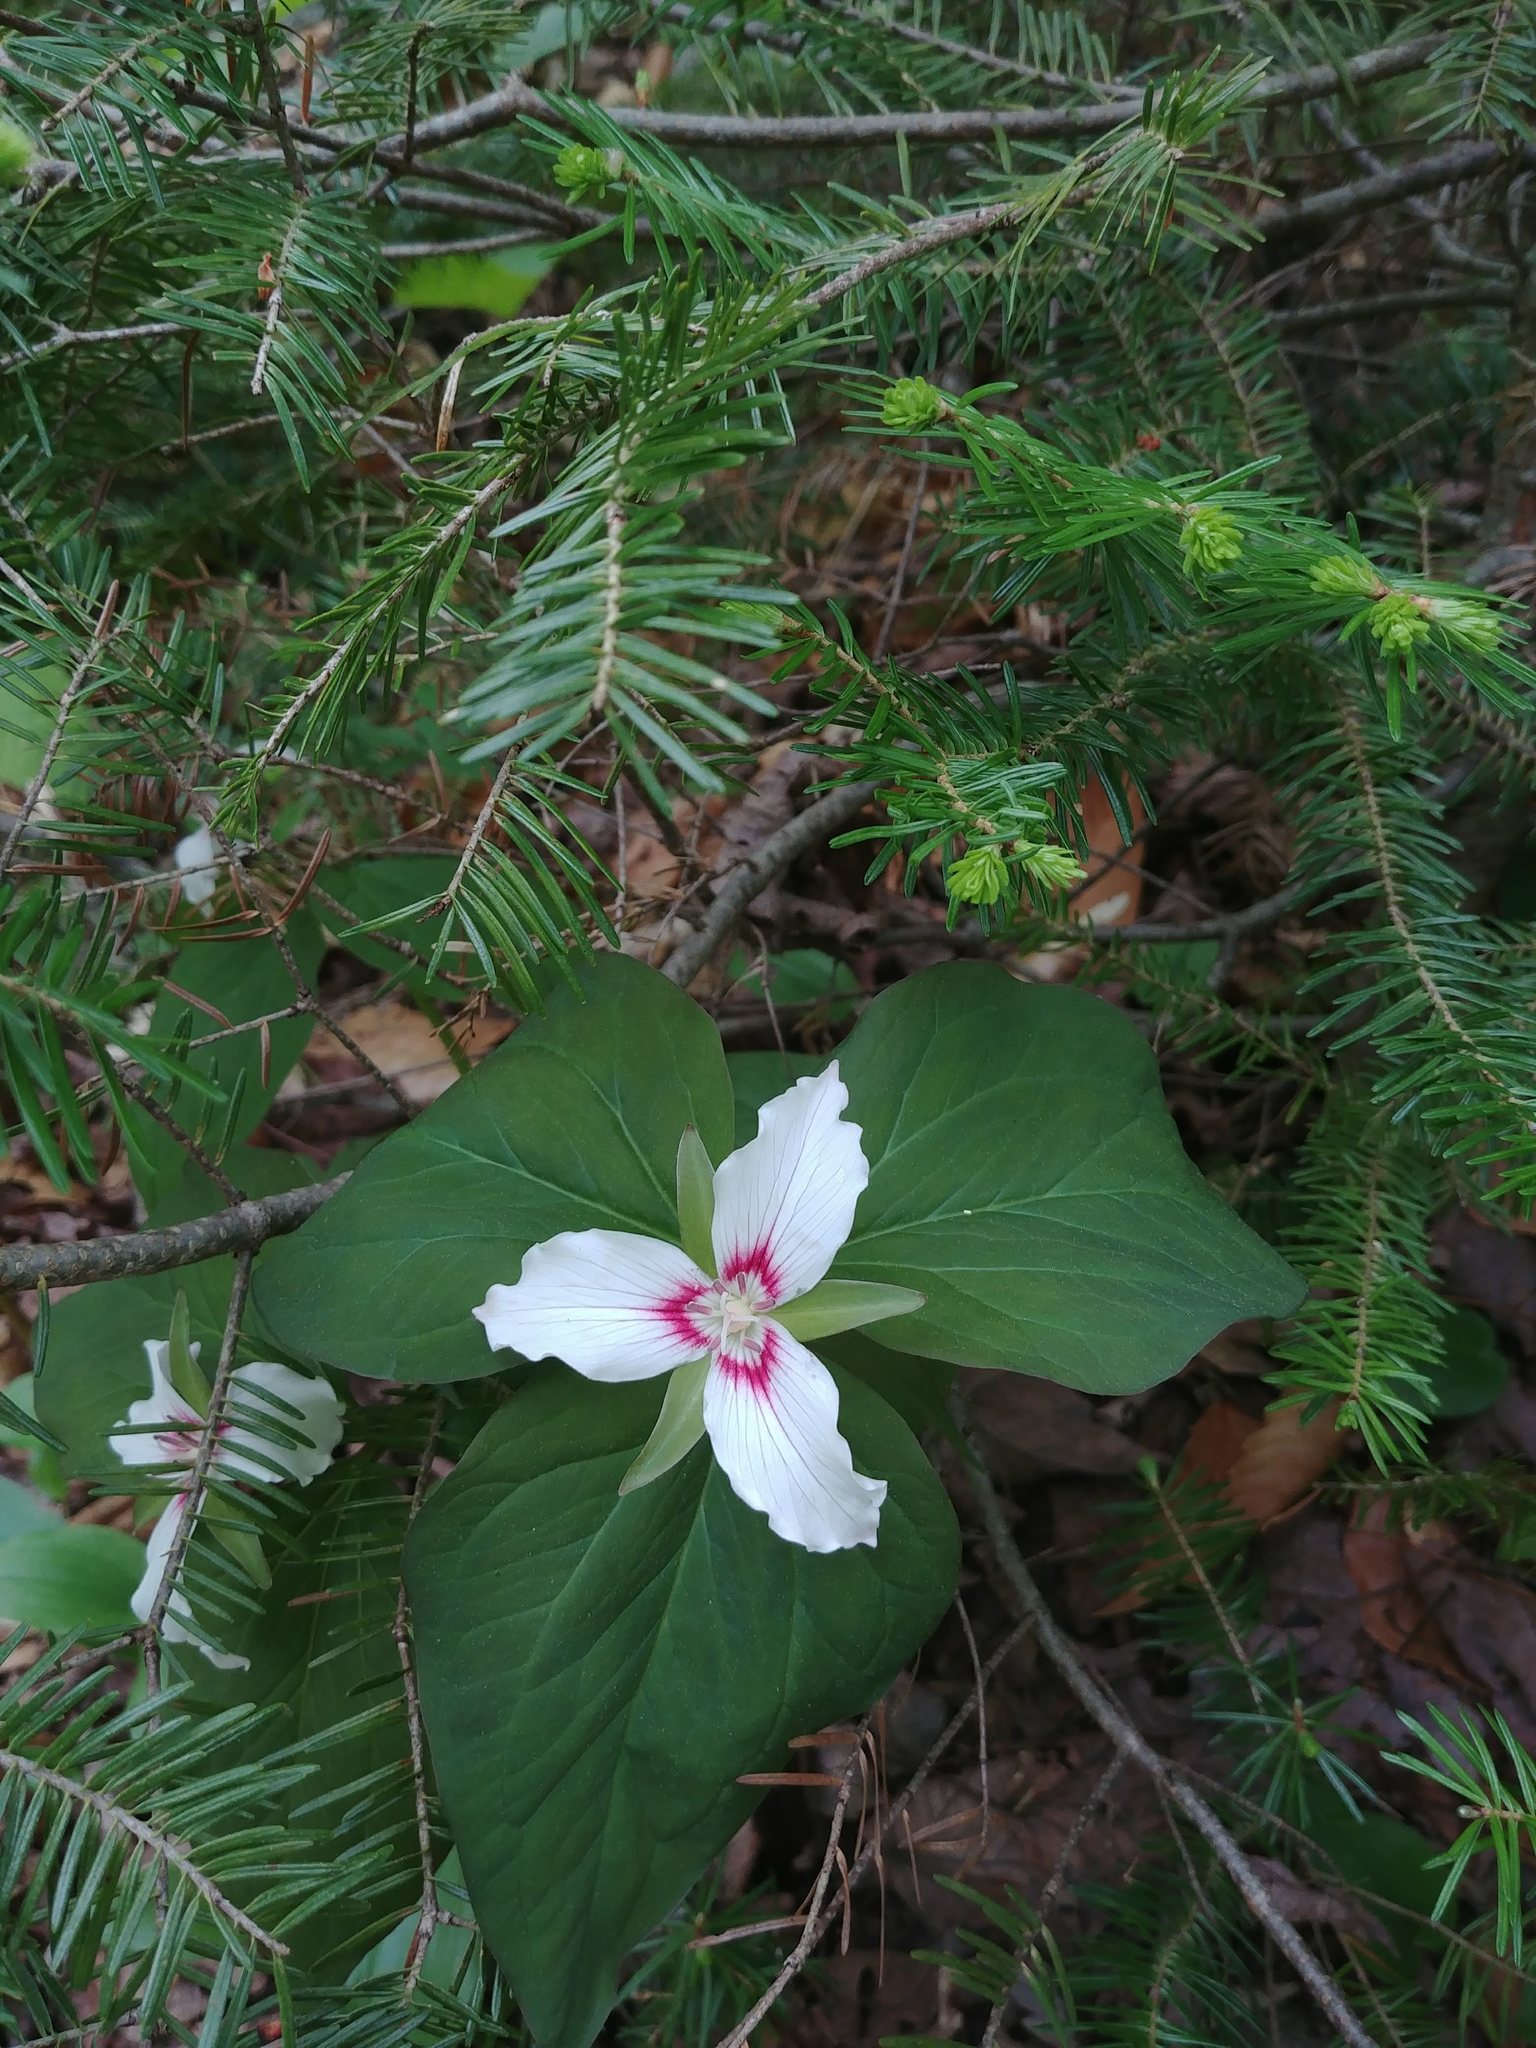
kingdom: Plantae
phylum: Tracheophyta
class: Liliopsida
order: Liliales
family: Melanthiaceae
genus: Trillium
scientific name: Trillium undulatum
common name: Paint trillium
